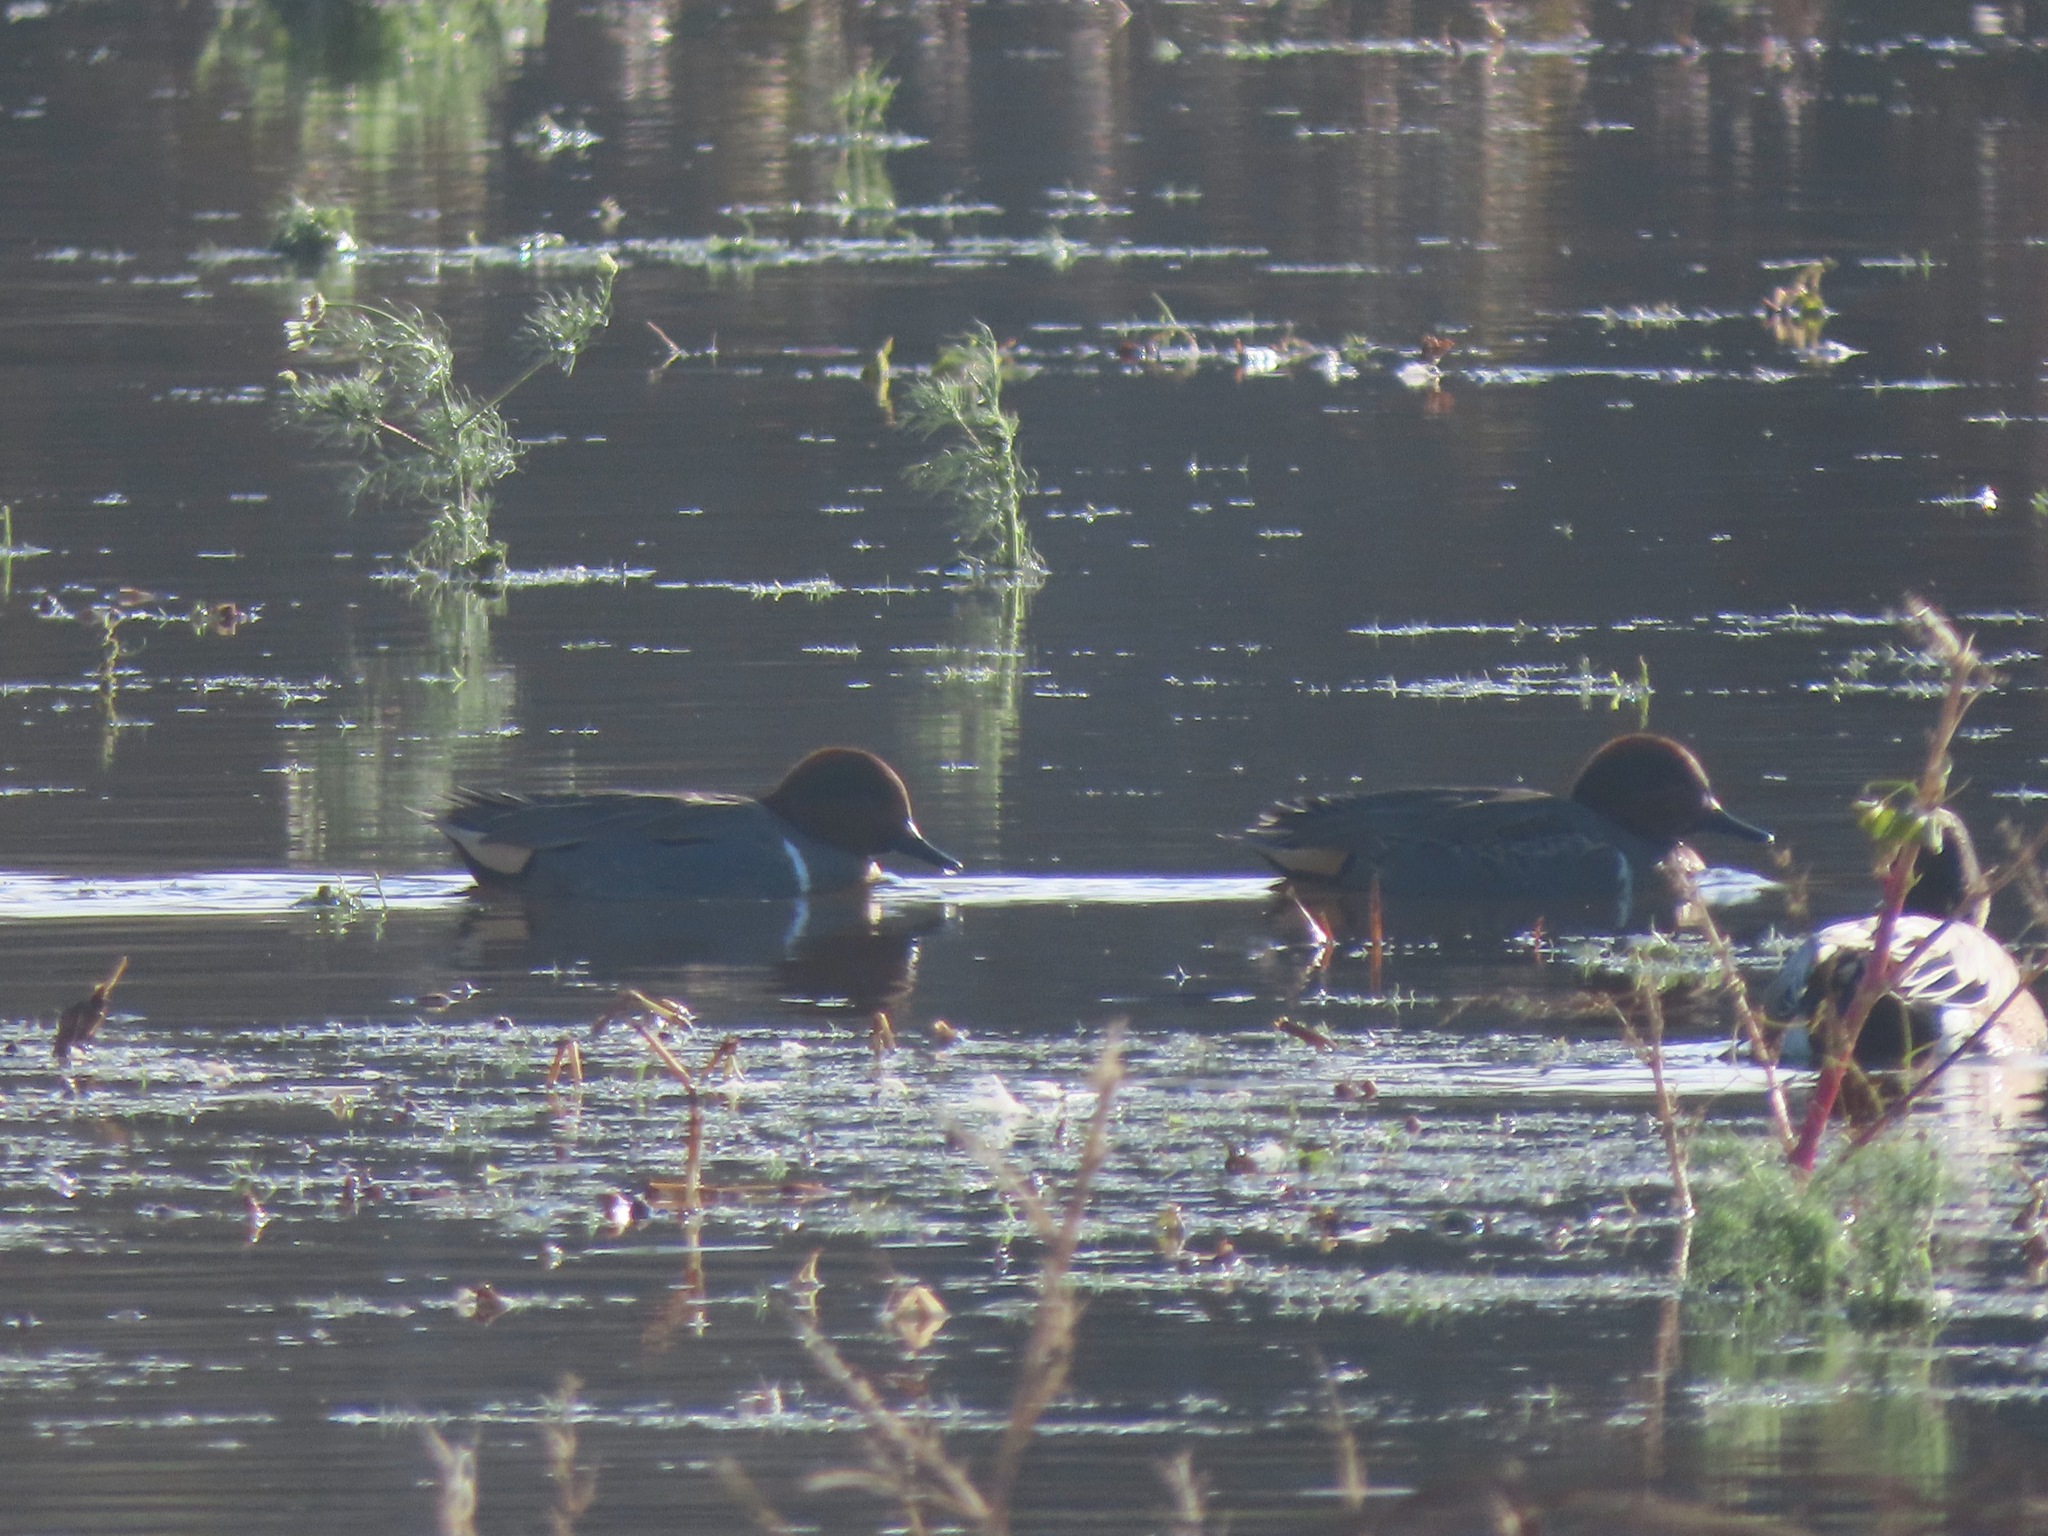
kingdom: Animalia
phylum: Chordata
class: Aves
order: Anseriformes
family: Anatidae
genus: Anas
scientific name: Anas crecca
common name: Eurasian teal
